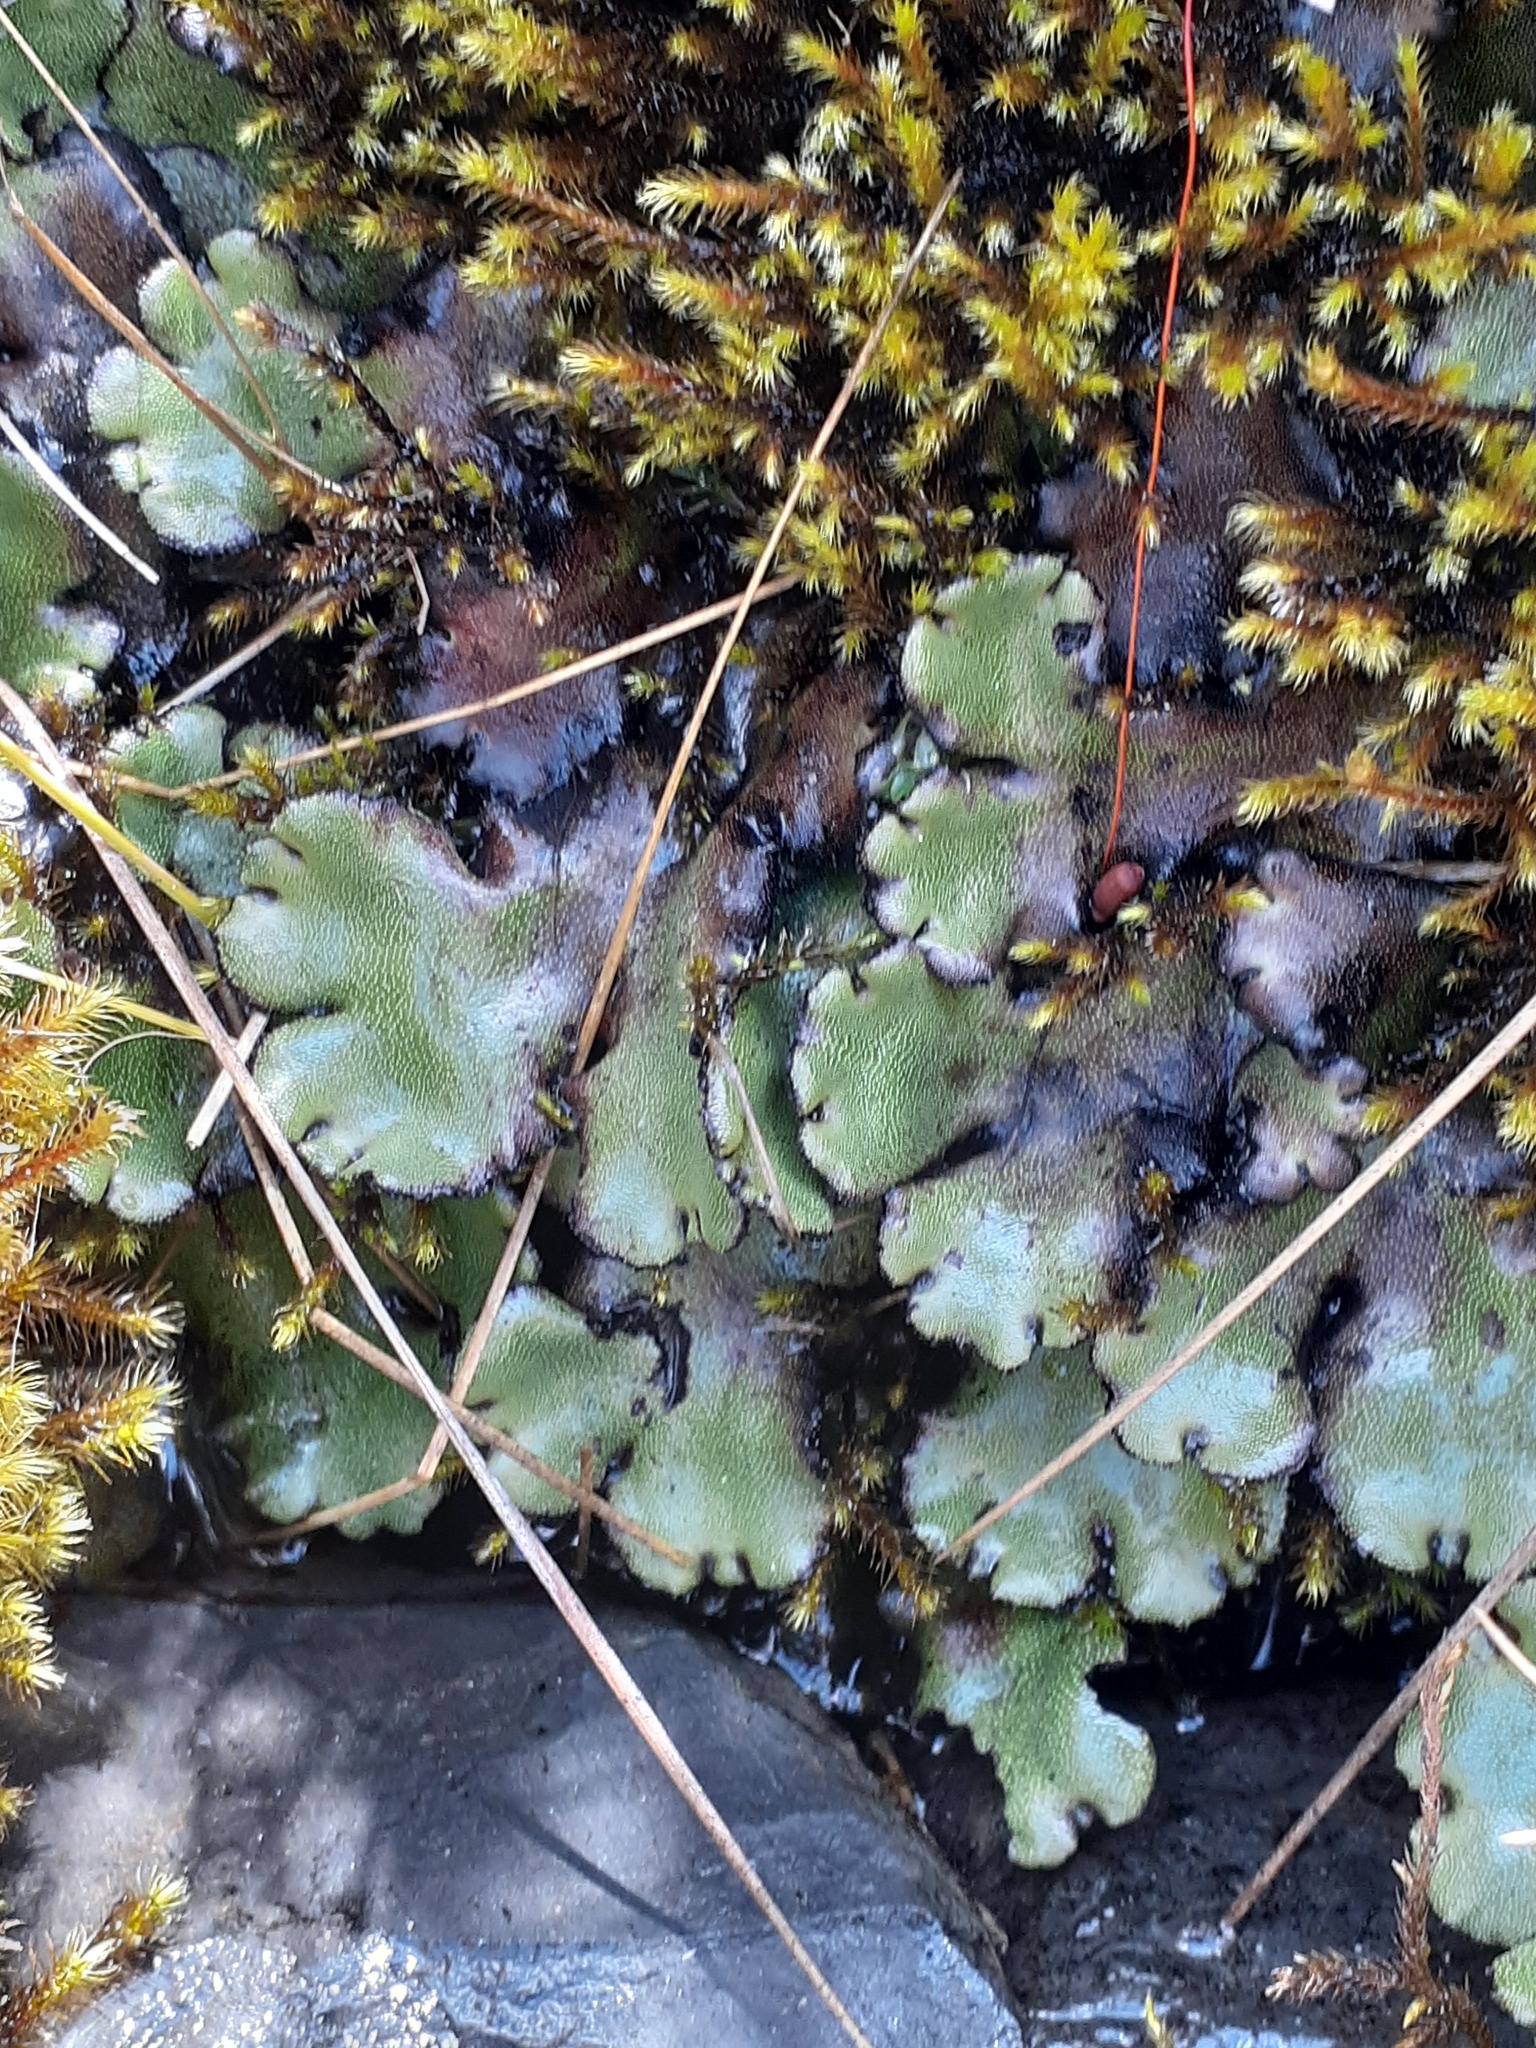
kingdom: Plantae
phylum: Marchantiophyta
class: Marchantiopsida
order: Marchantiales
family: Marchantiaceae
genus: Marchantia
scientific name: Marchantia plicata
